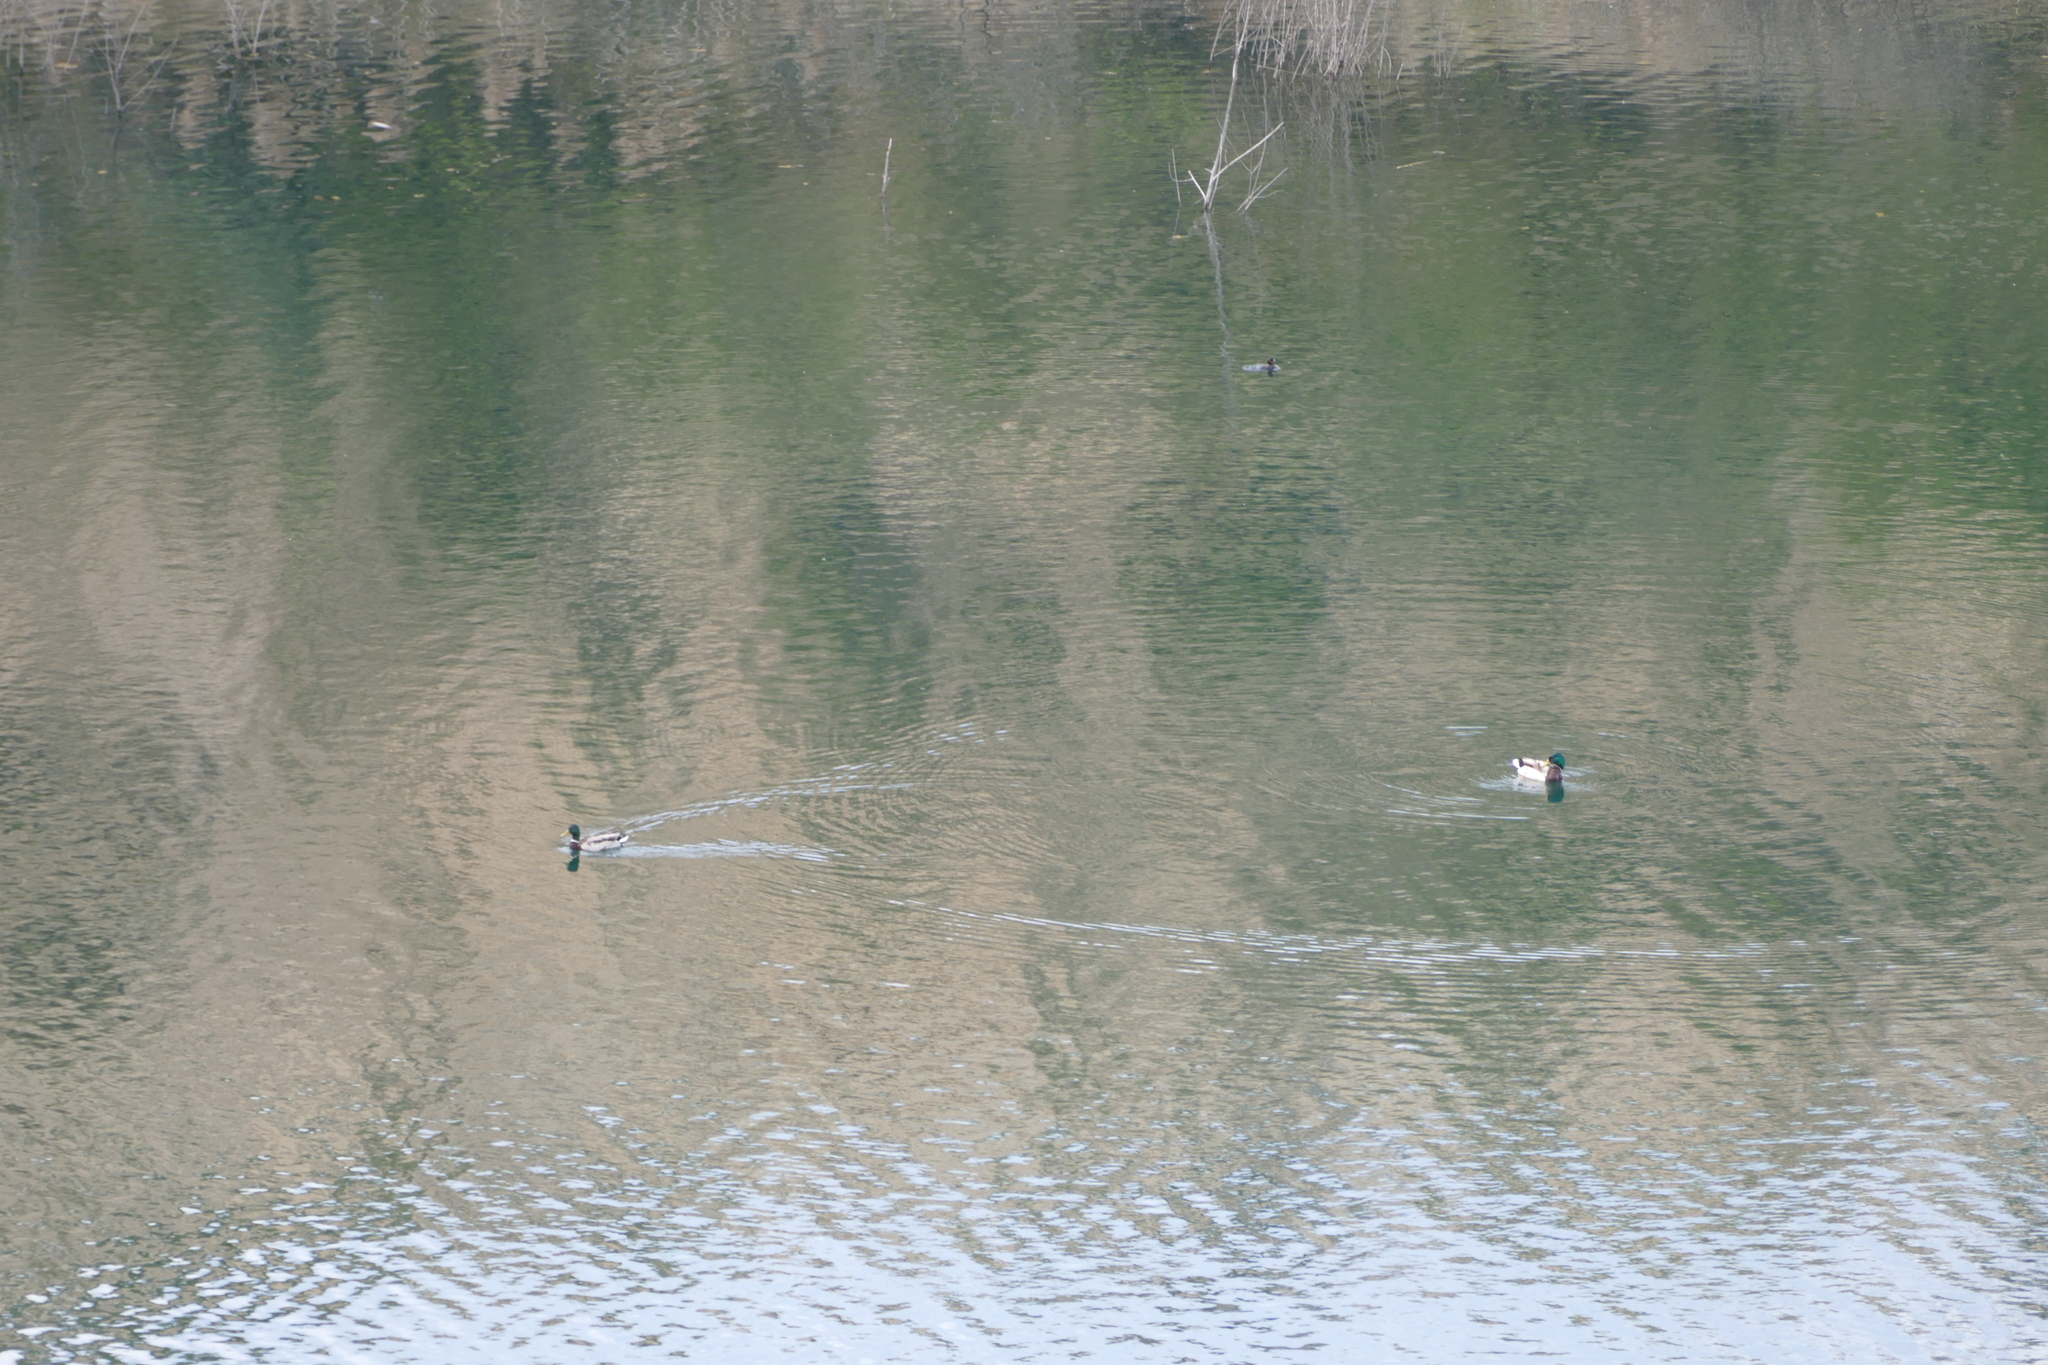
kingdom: Animalia
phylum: Chordata
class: Aves
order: Anseriformes
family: Anatidae
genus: Anas
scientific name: Anas platyrhynchos
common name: Mallard
